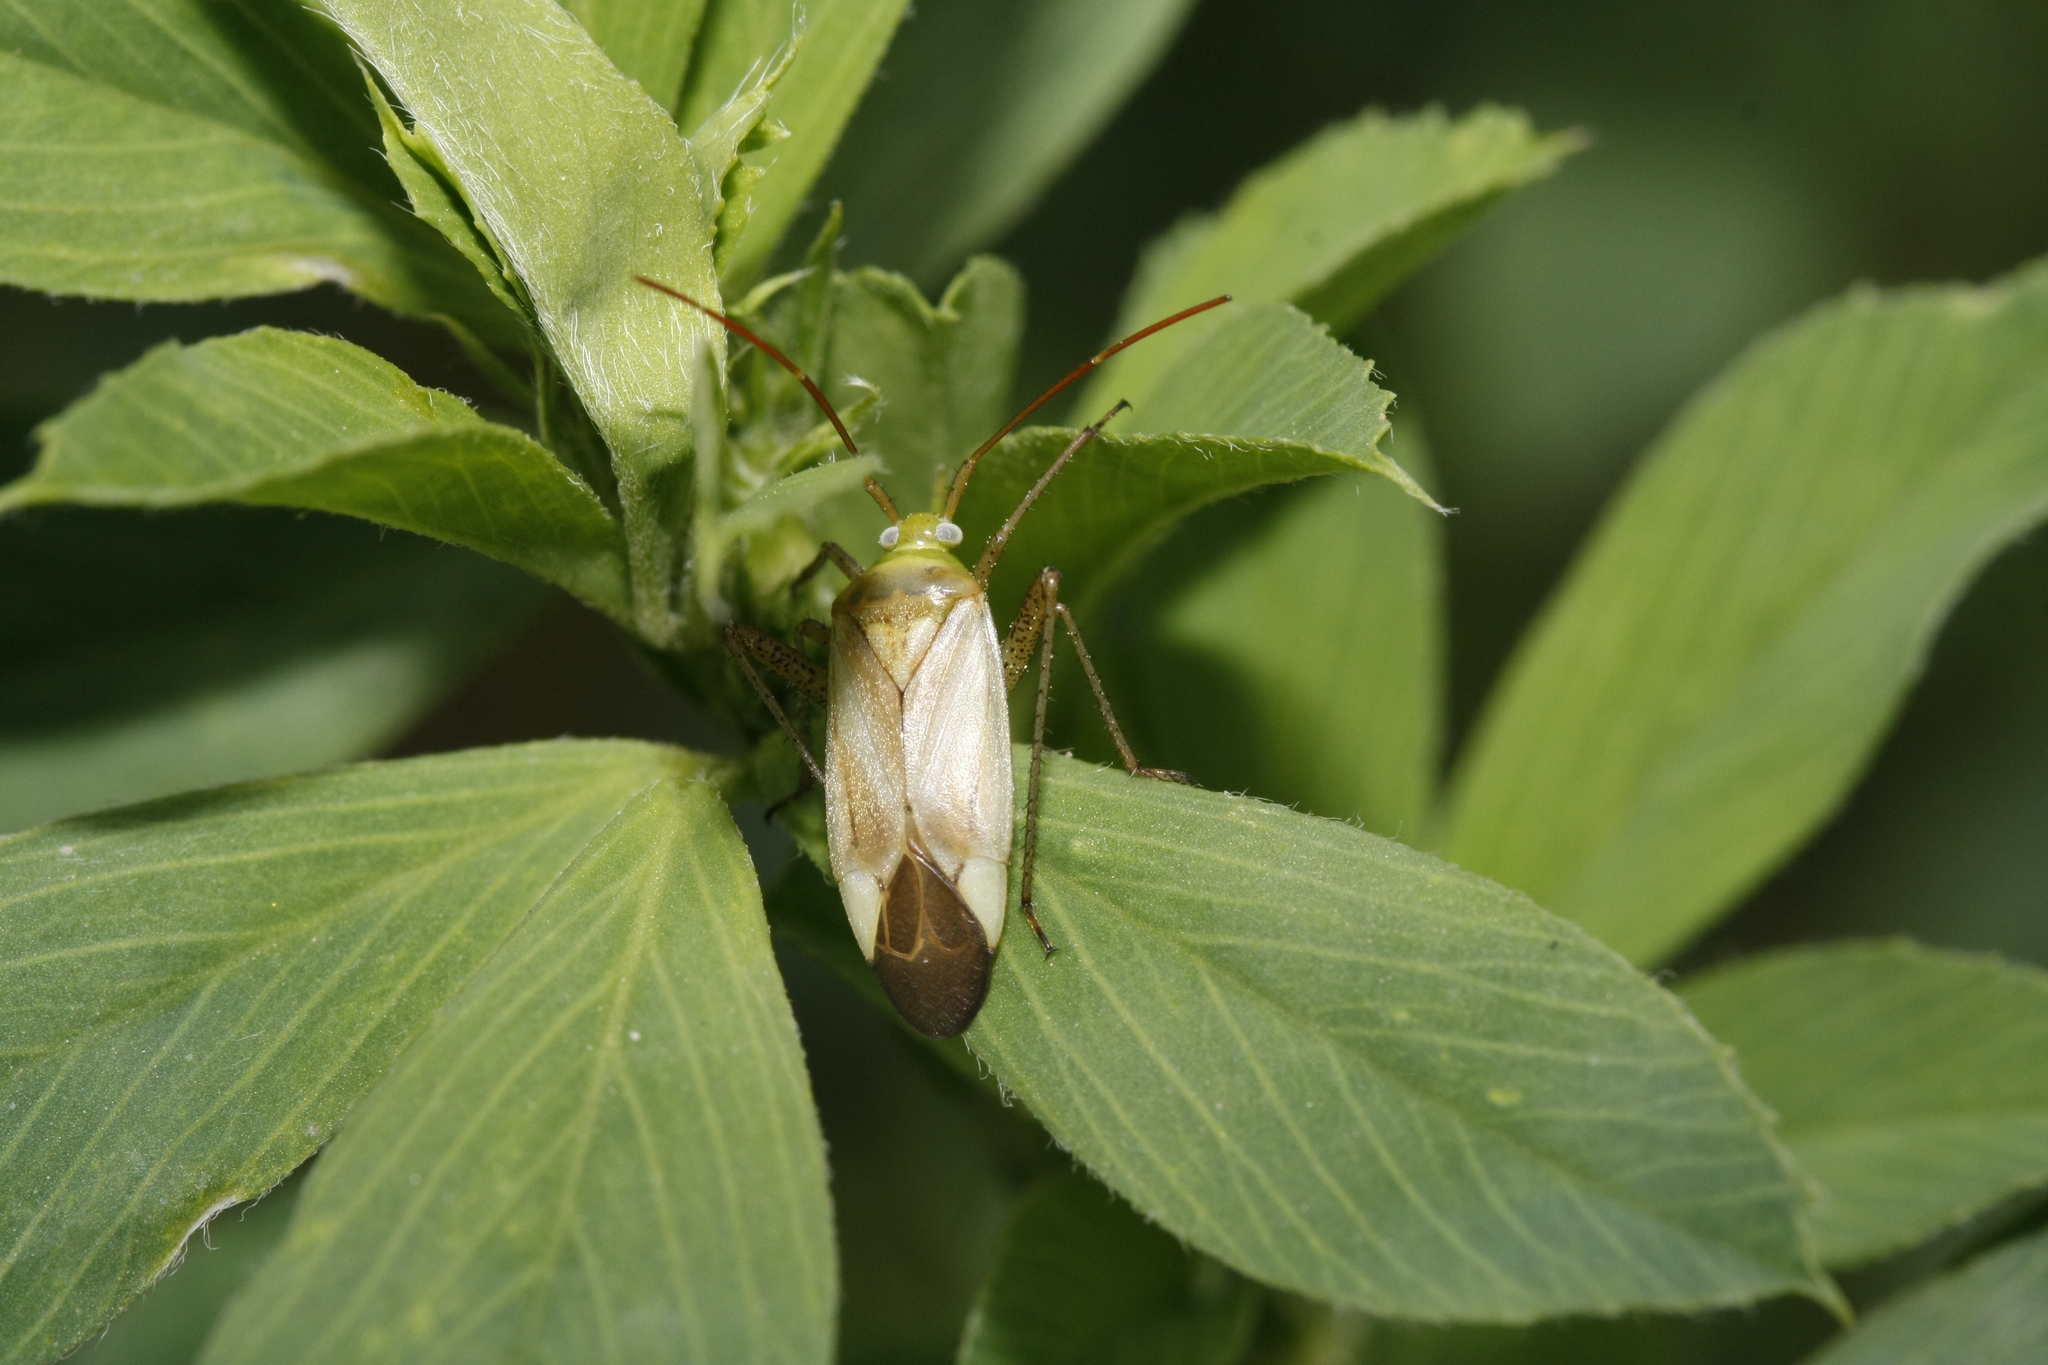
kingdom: Animalia
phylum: Arthropoda
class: Insecta
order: Hemiptera
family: Miridae
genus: Adelphocoris
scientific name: Adelphocoris lineolatus
